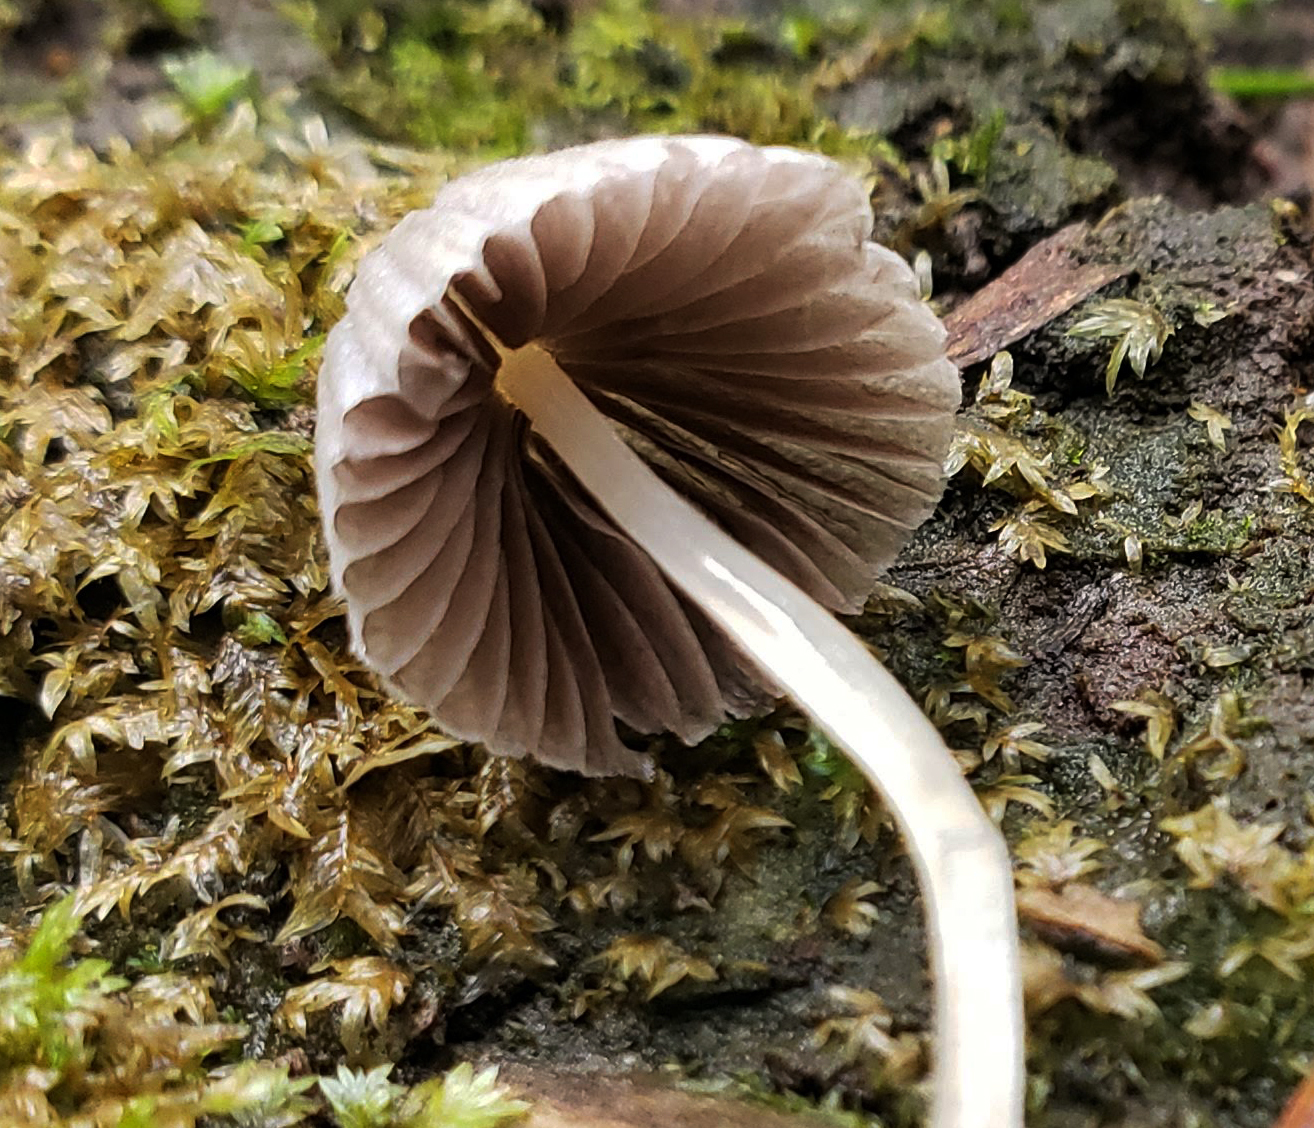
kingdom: Fungi
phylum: Basidiomycota
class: Agaricomycetes
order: Agaricales
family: Psathyrellaceae
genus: Coprinellus
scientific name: Coprinellus disseminatus
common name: Fairies' bonnets
